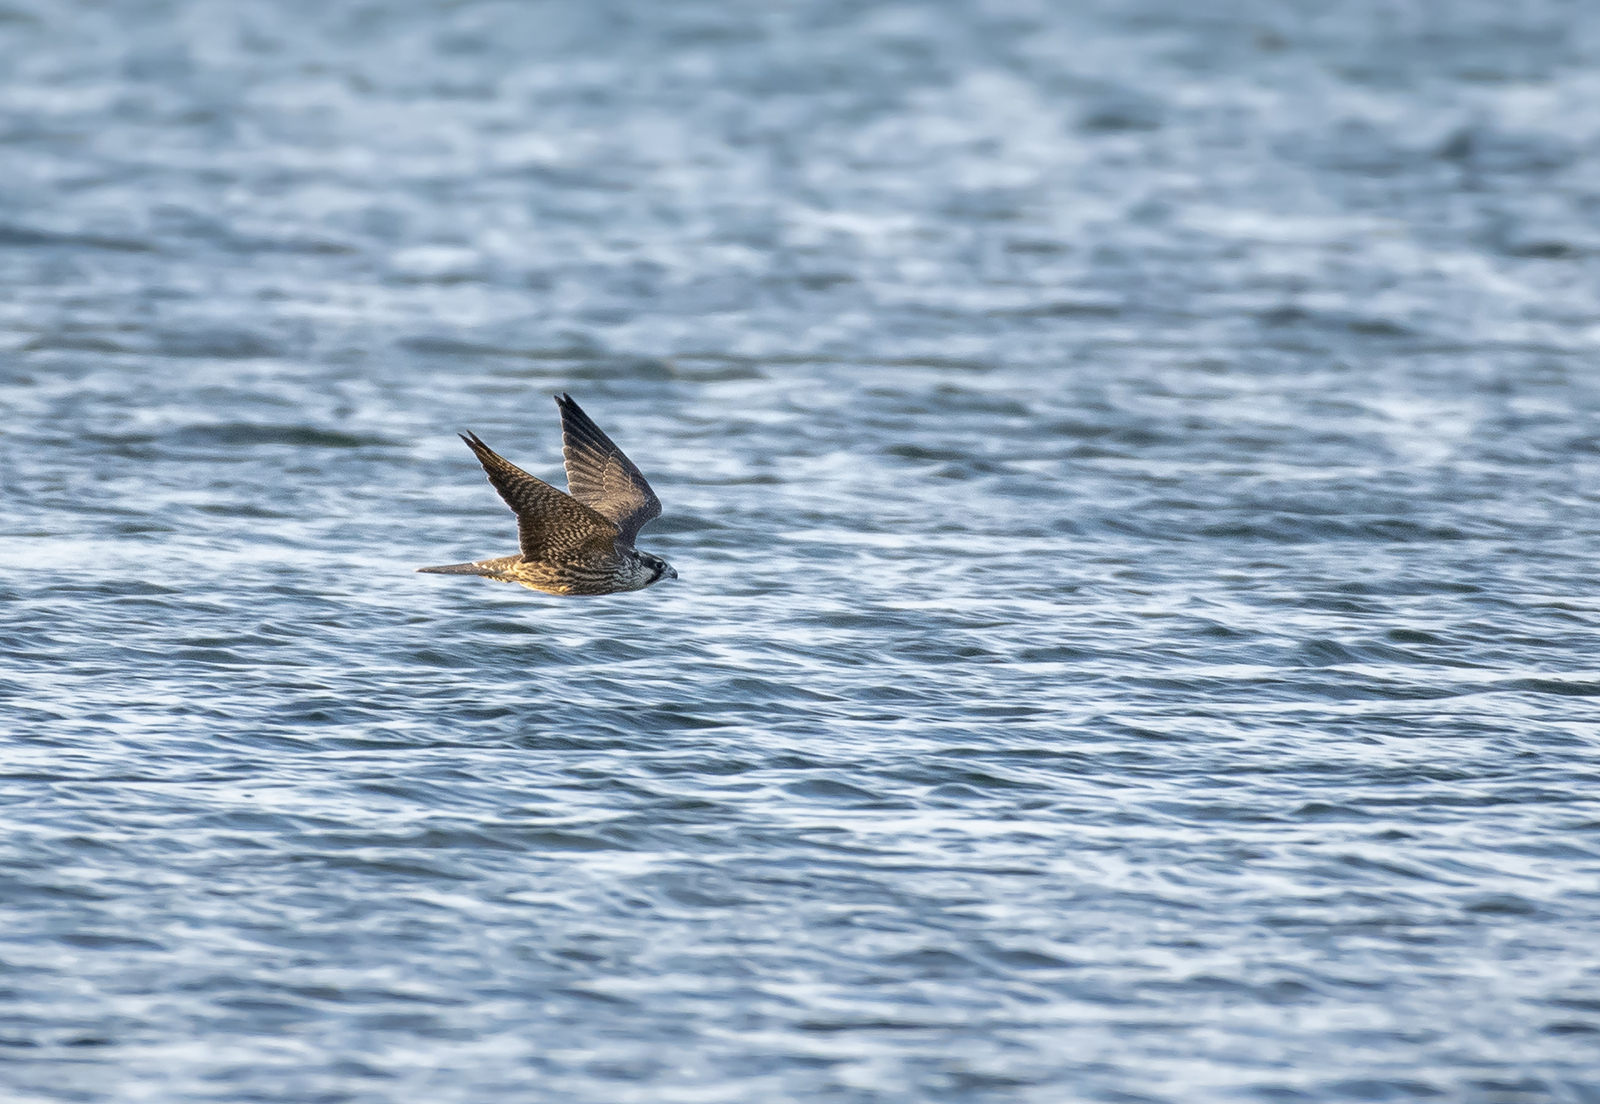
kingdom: Animalia
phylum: Chordata
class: Aves
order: Falconiformes
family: Falconidae
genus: Falco
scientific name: Falco peregrinus
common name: Peregrine falcon
